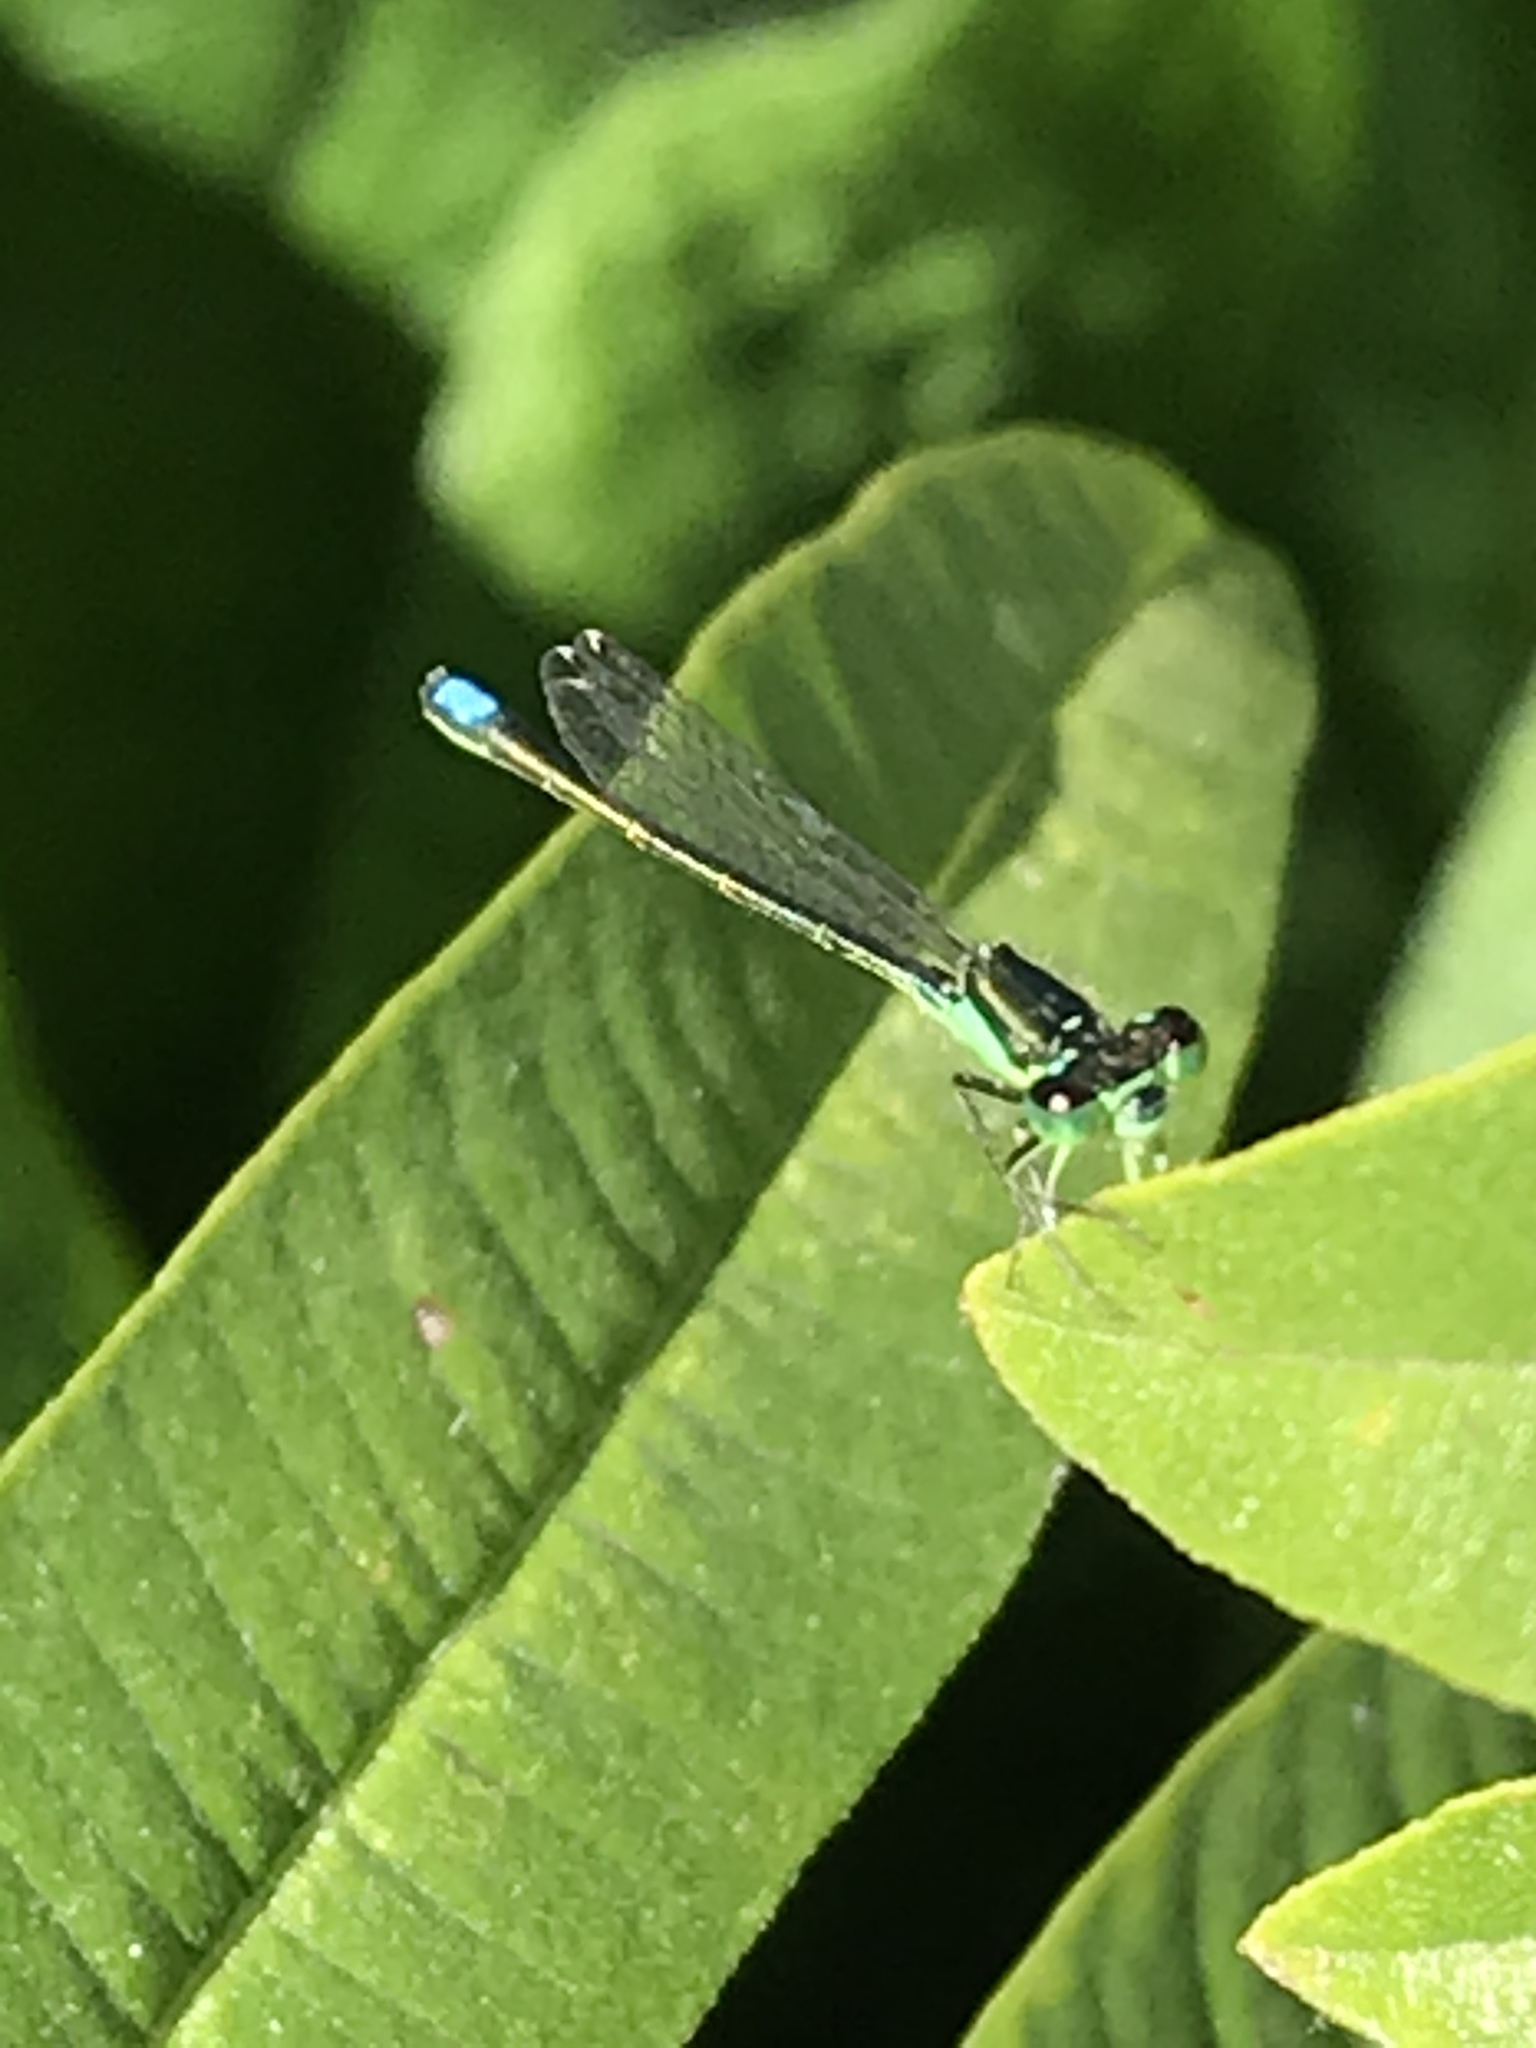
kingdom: Animalia
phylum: Arthropoda
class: Insecta
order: Odonata
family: Coenagrionidae
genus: Ischnura
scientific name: Ischnura denticollis
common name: Black-fronted forktail
